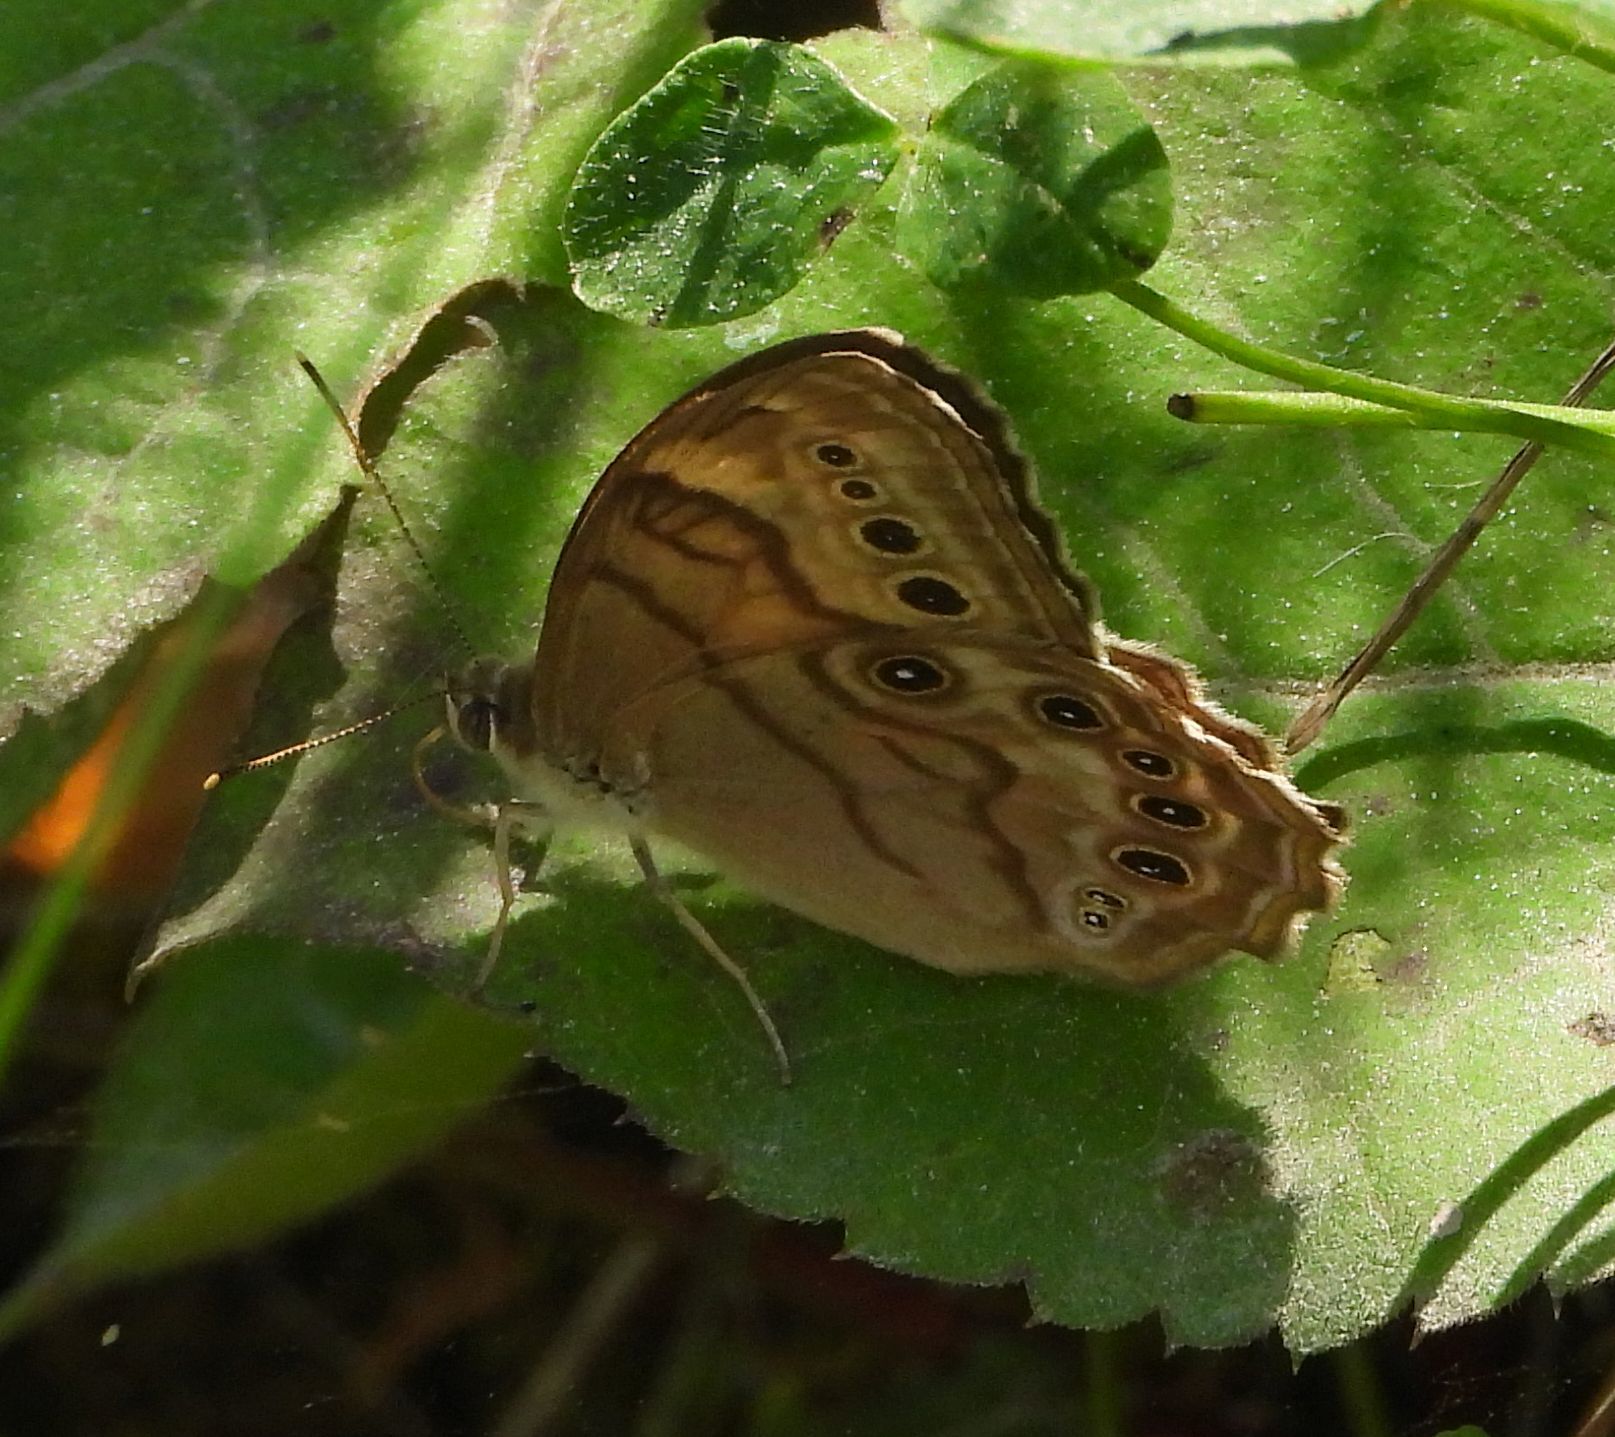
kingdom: Animalia
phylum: Arthropoda
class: Insecta
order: Lepidoptera
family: Nymphalidae
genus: Lethe
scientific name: Lethe anthedon
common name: Northern pearly-eye
